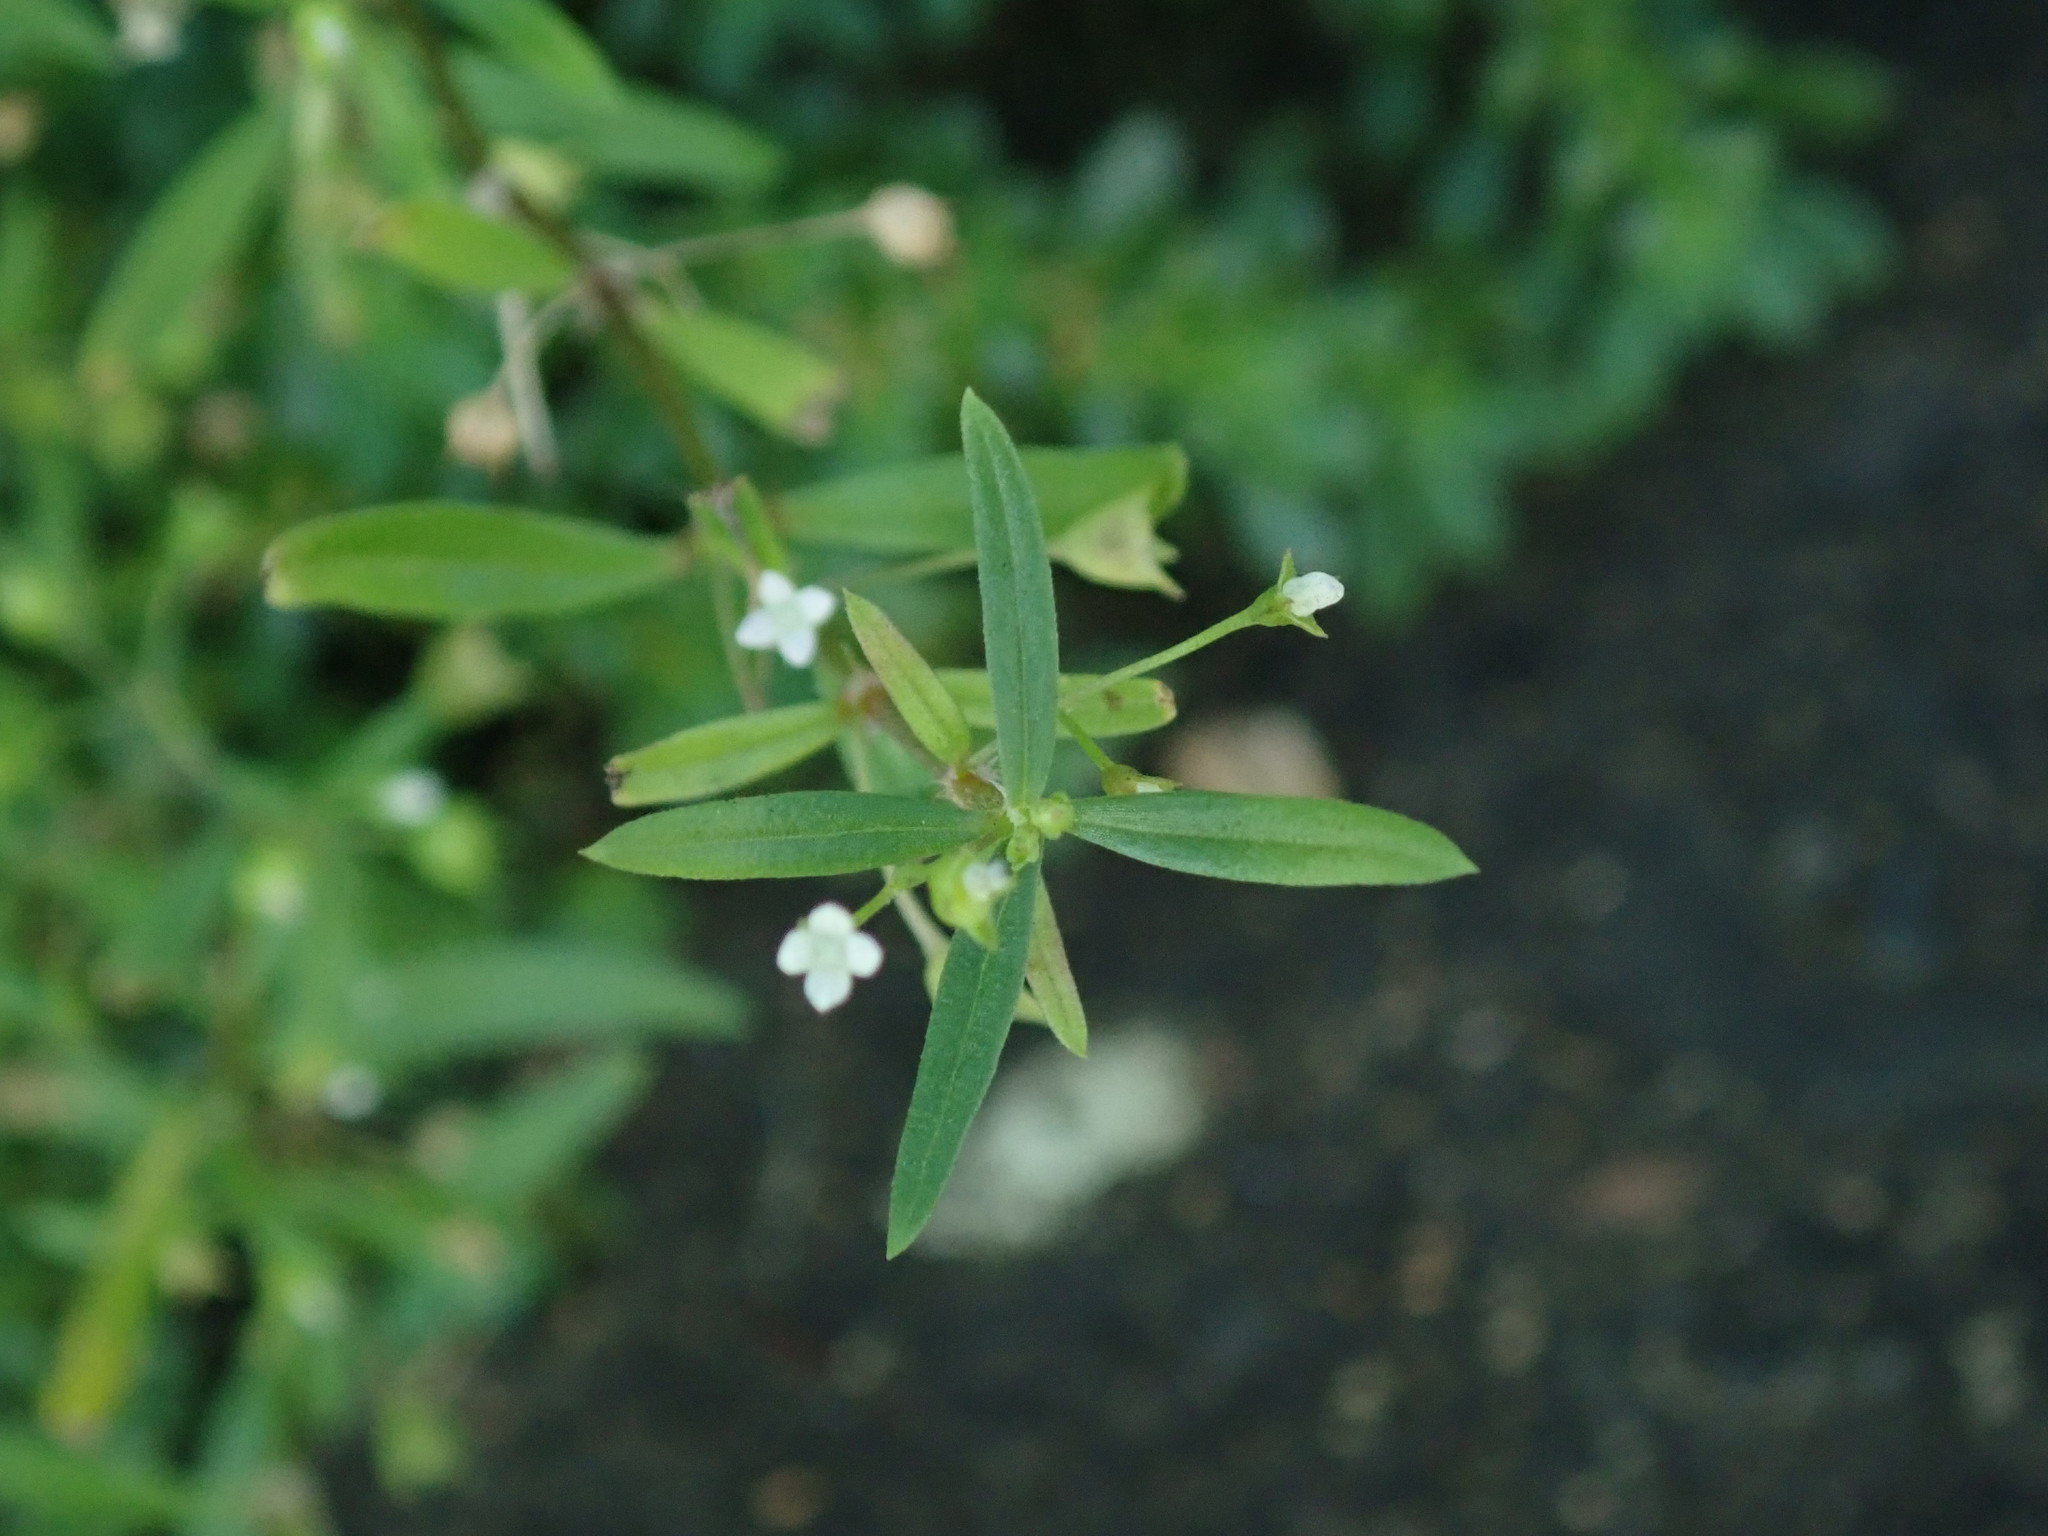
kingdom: Plantae
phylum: Tracheophyta
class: Magnoliopsida
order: Gentianales
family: Rubiaceae
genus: Oldenlandia
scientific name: Oldenlandia corymbosa
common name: Flat-top mille graines
